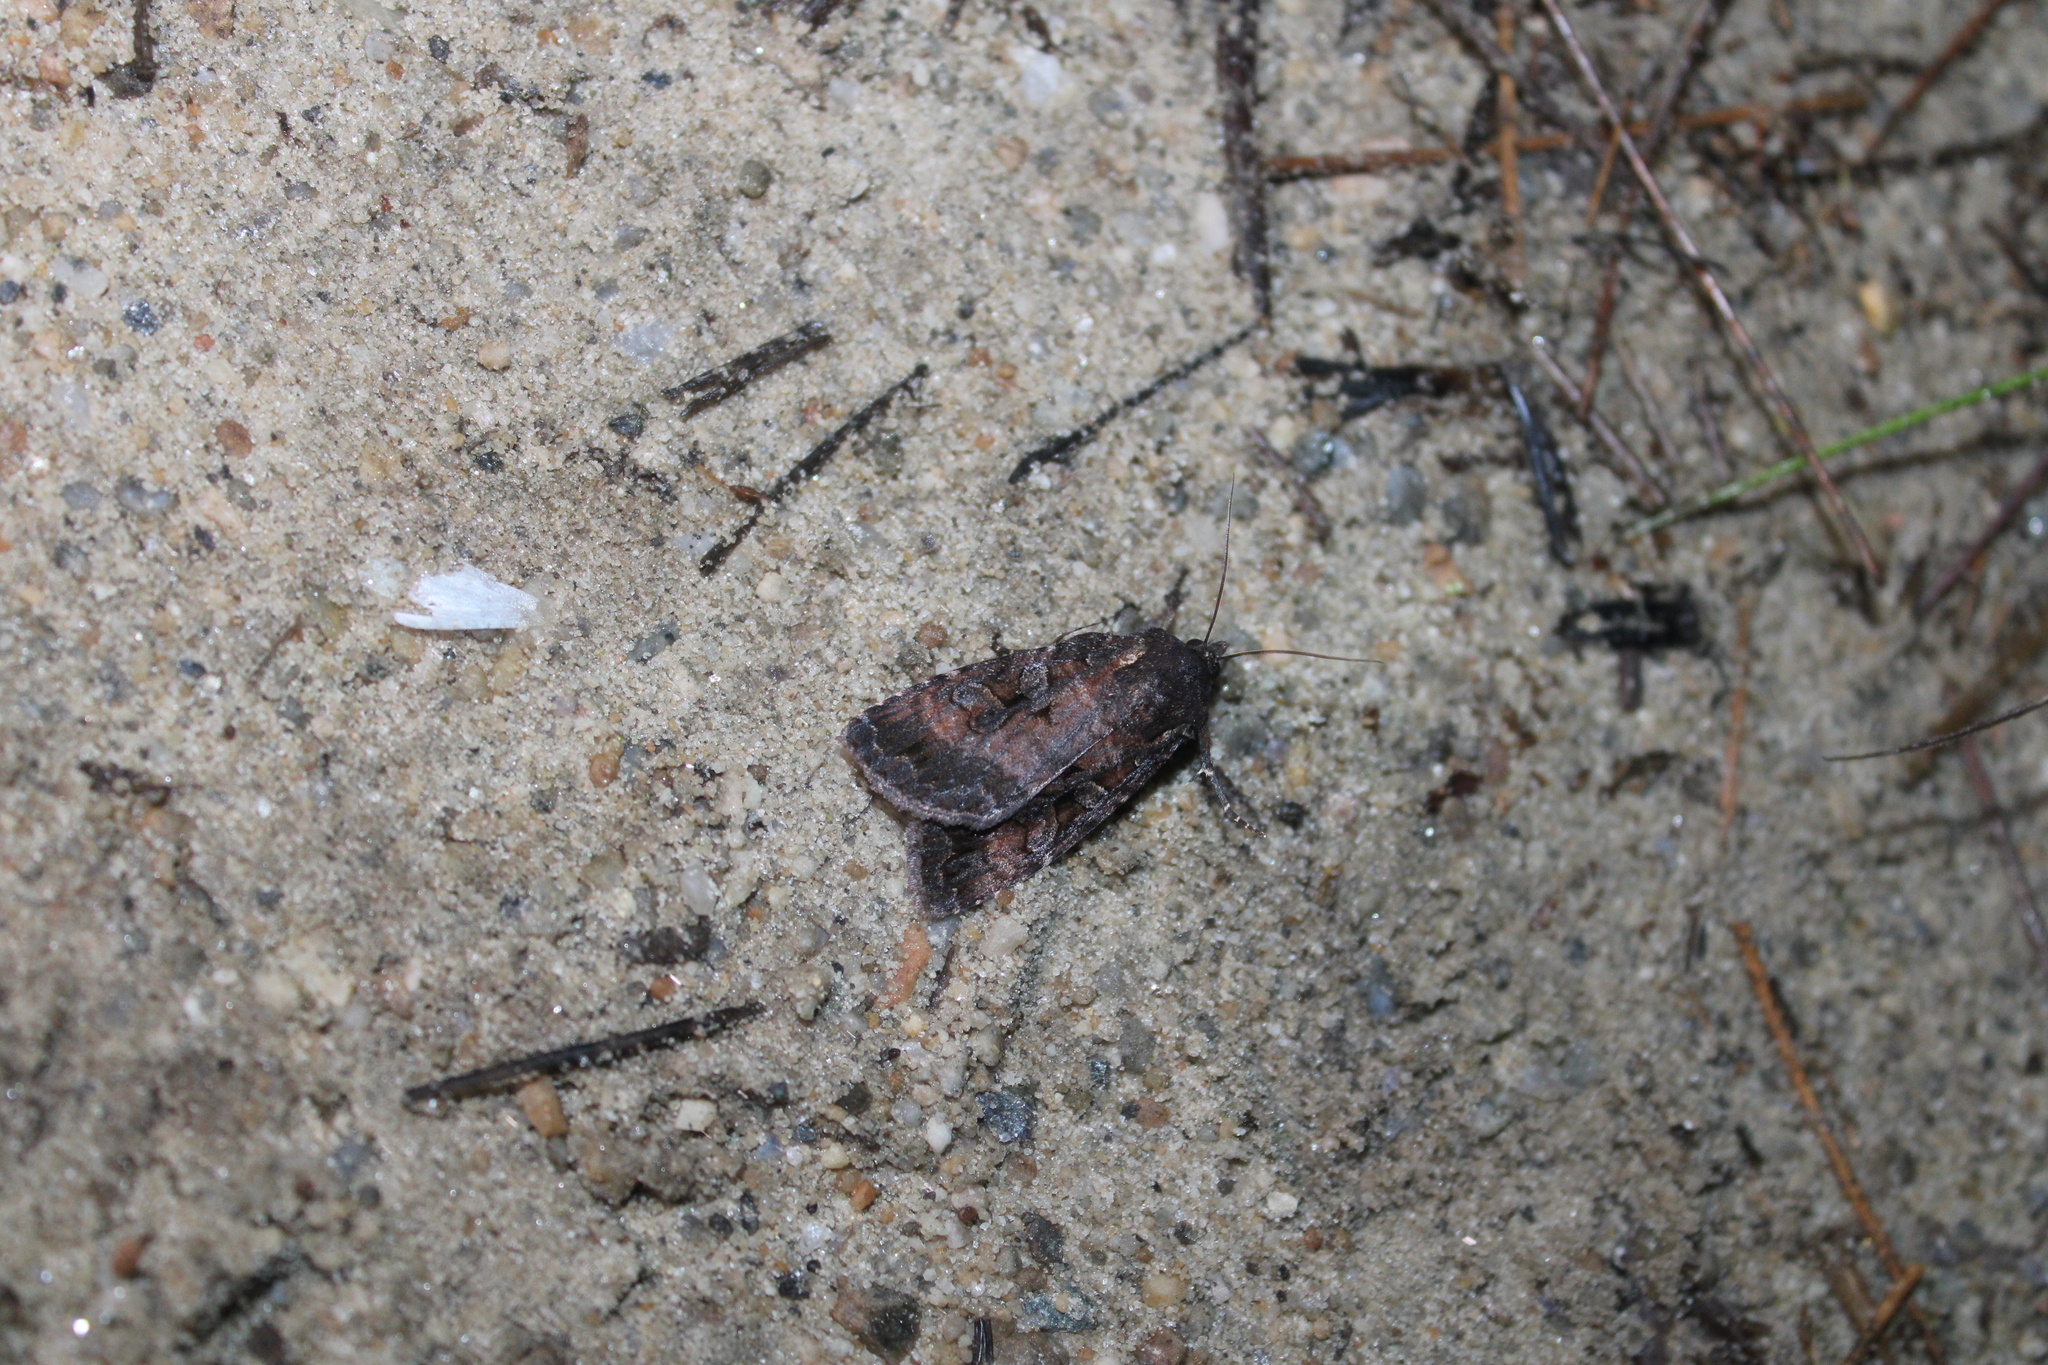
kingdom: Animalia
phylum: Arthropoda
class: Insecta
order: Lepidoptera
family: Noctuidae
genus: Eurois
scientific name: Eurois astricta
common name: Great brown dart
